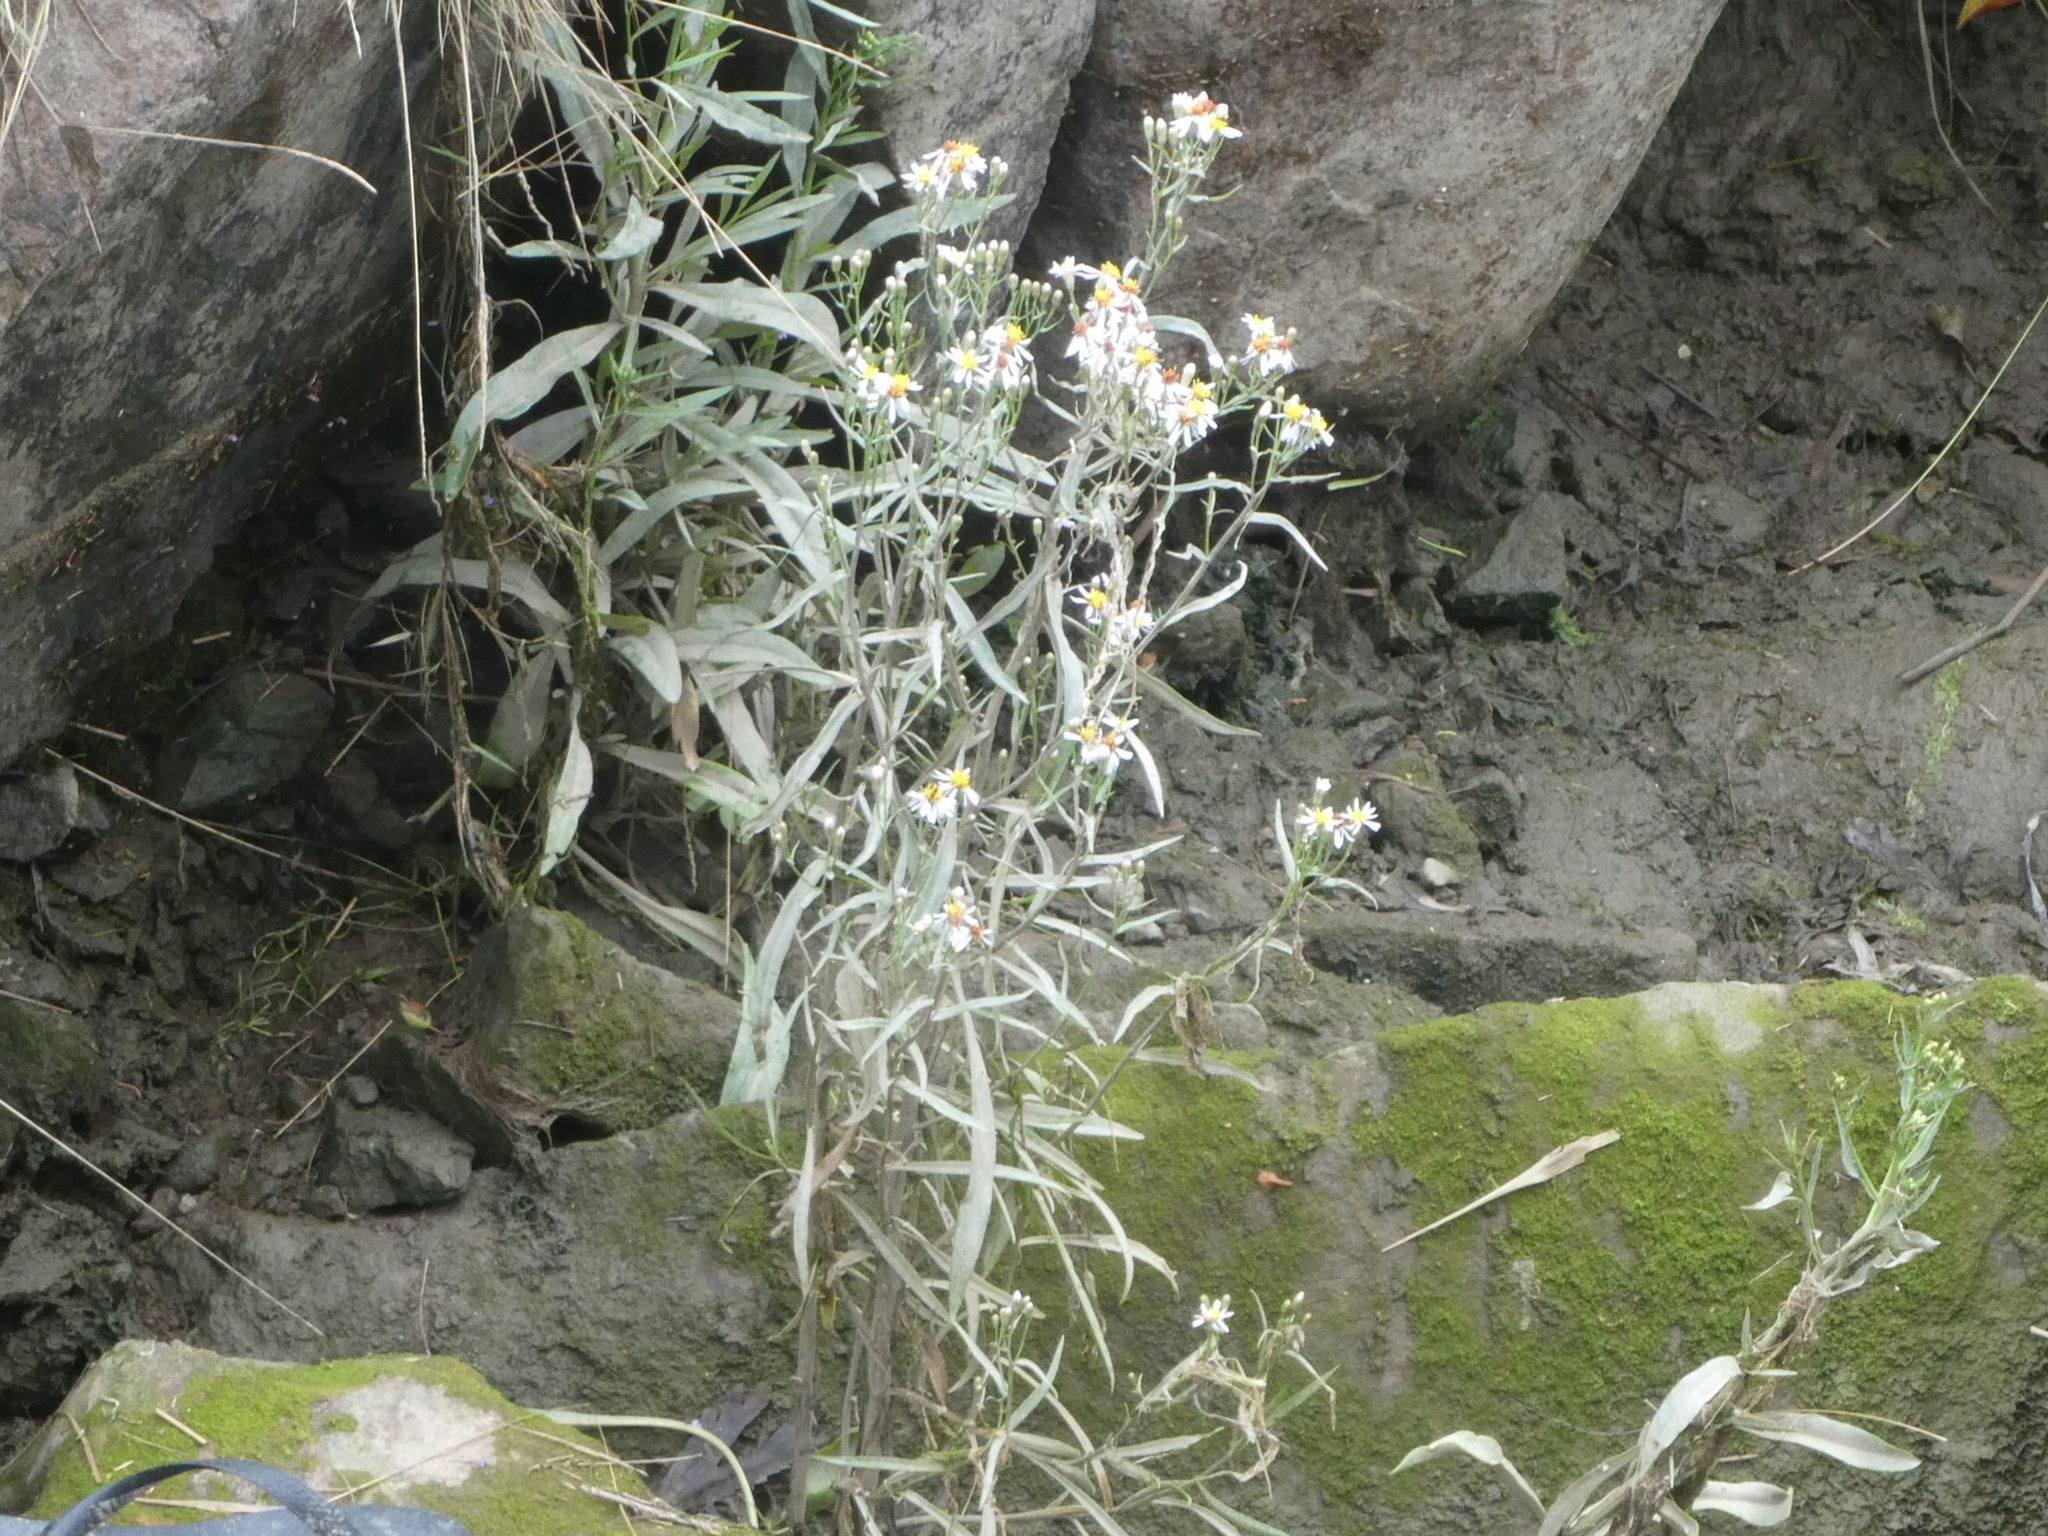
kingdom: Plantae
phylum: Tracheophyta
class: Magnoliopsida
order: Asterales
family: Asteraceae
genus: Tripolium
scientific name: Tripolium pannonicum
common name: Sea aster
